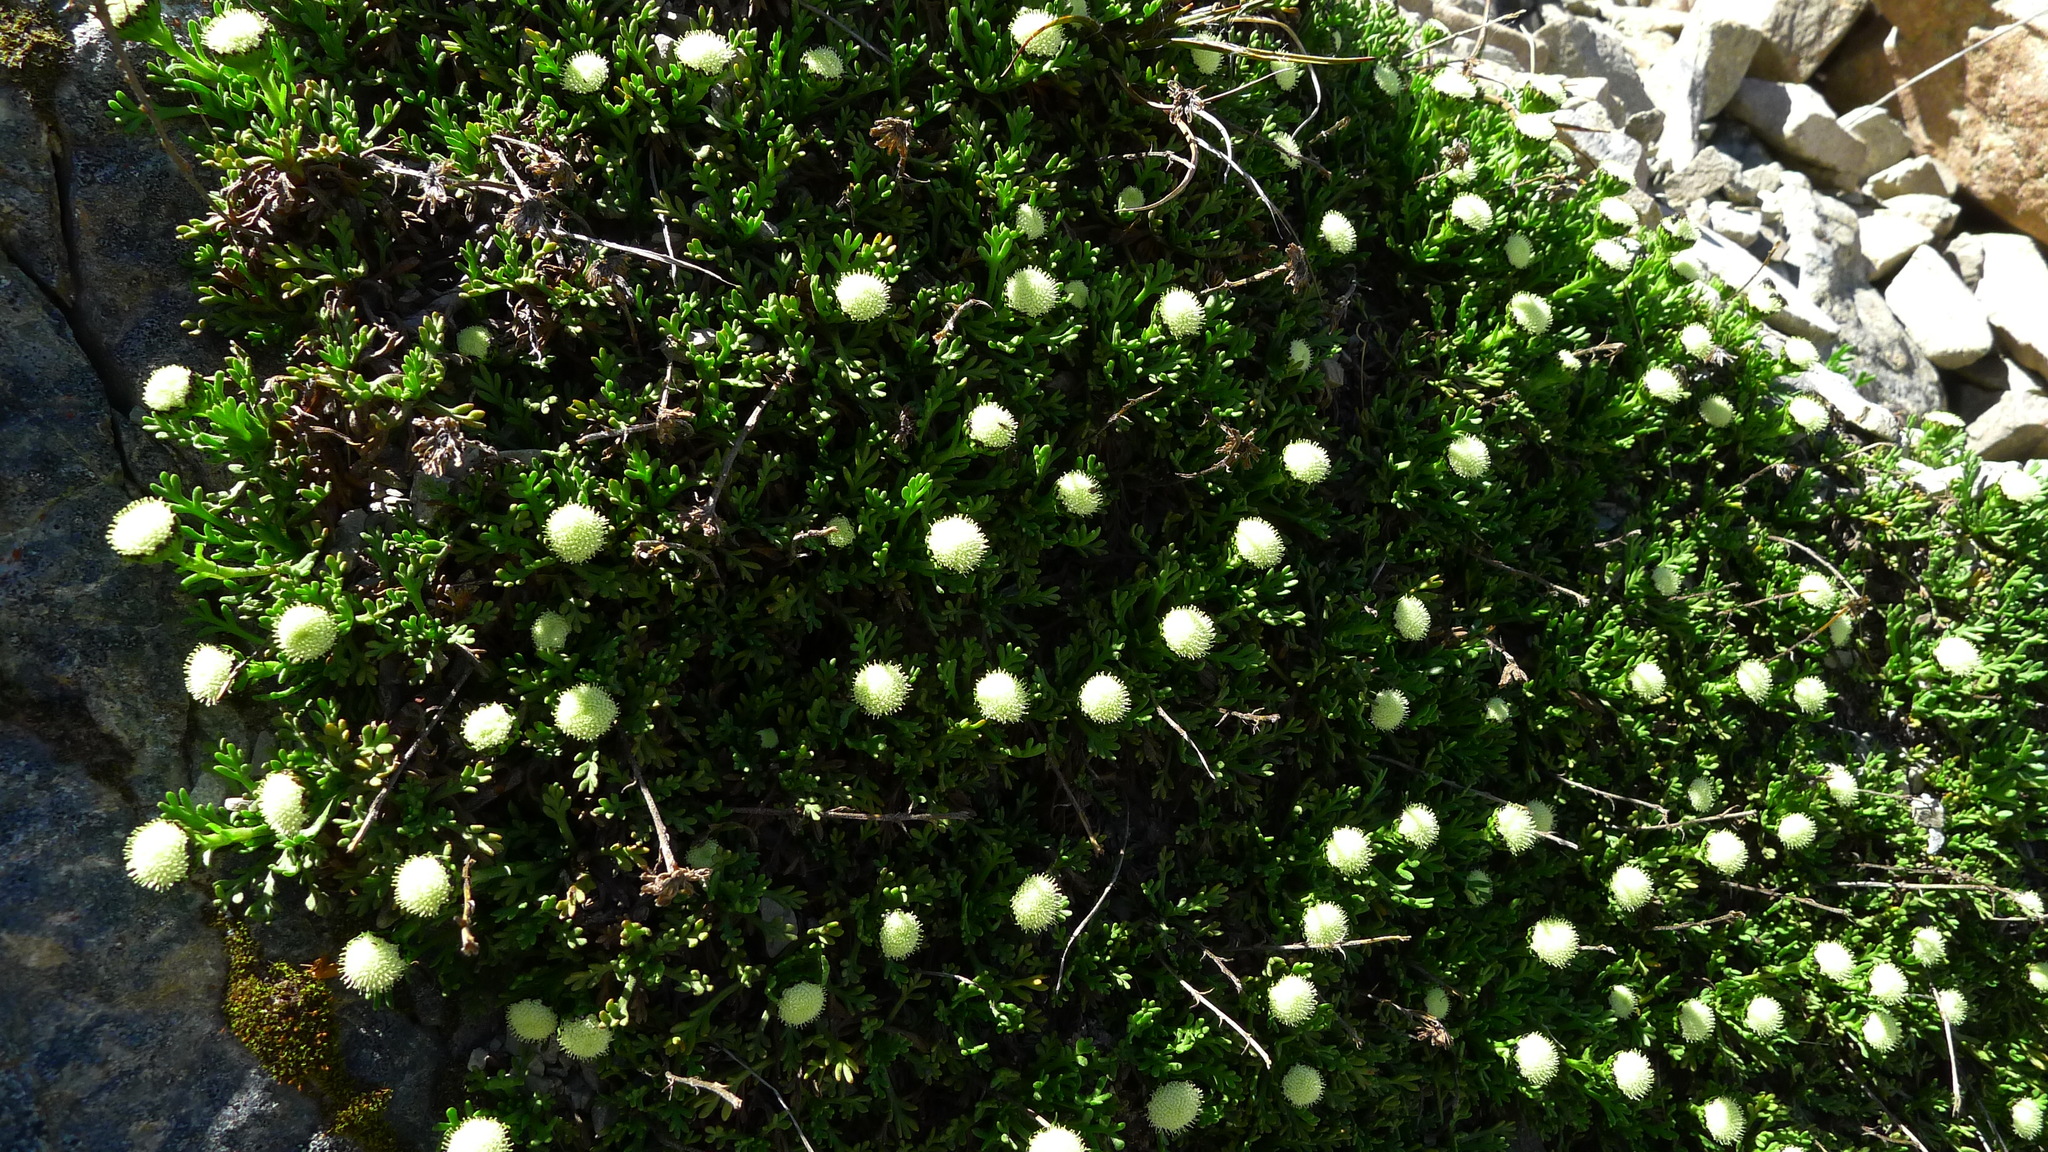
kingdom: Plantae
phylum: Tracheophyta
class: Magnoliopsida
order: Asterales
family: Asteraceae
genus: Leptinella
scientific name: Leptinella pyrethrifolia
